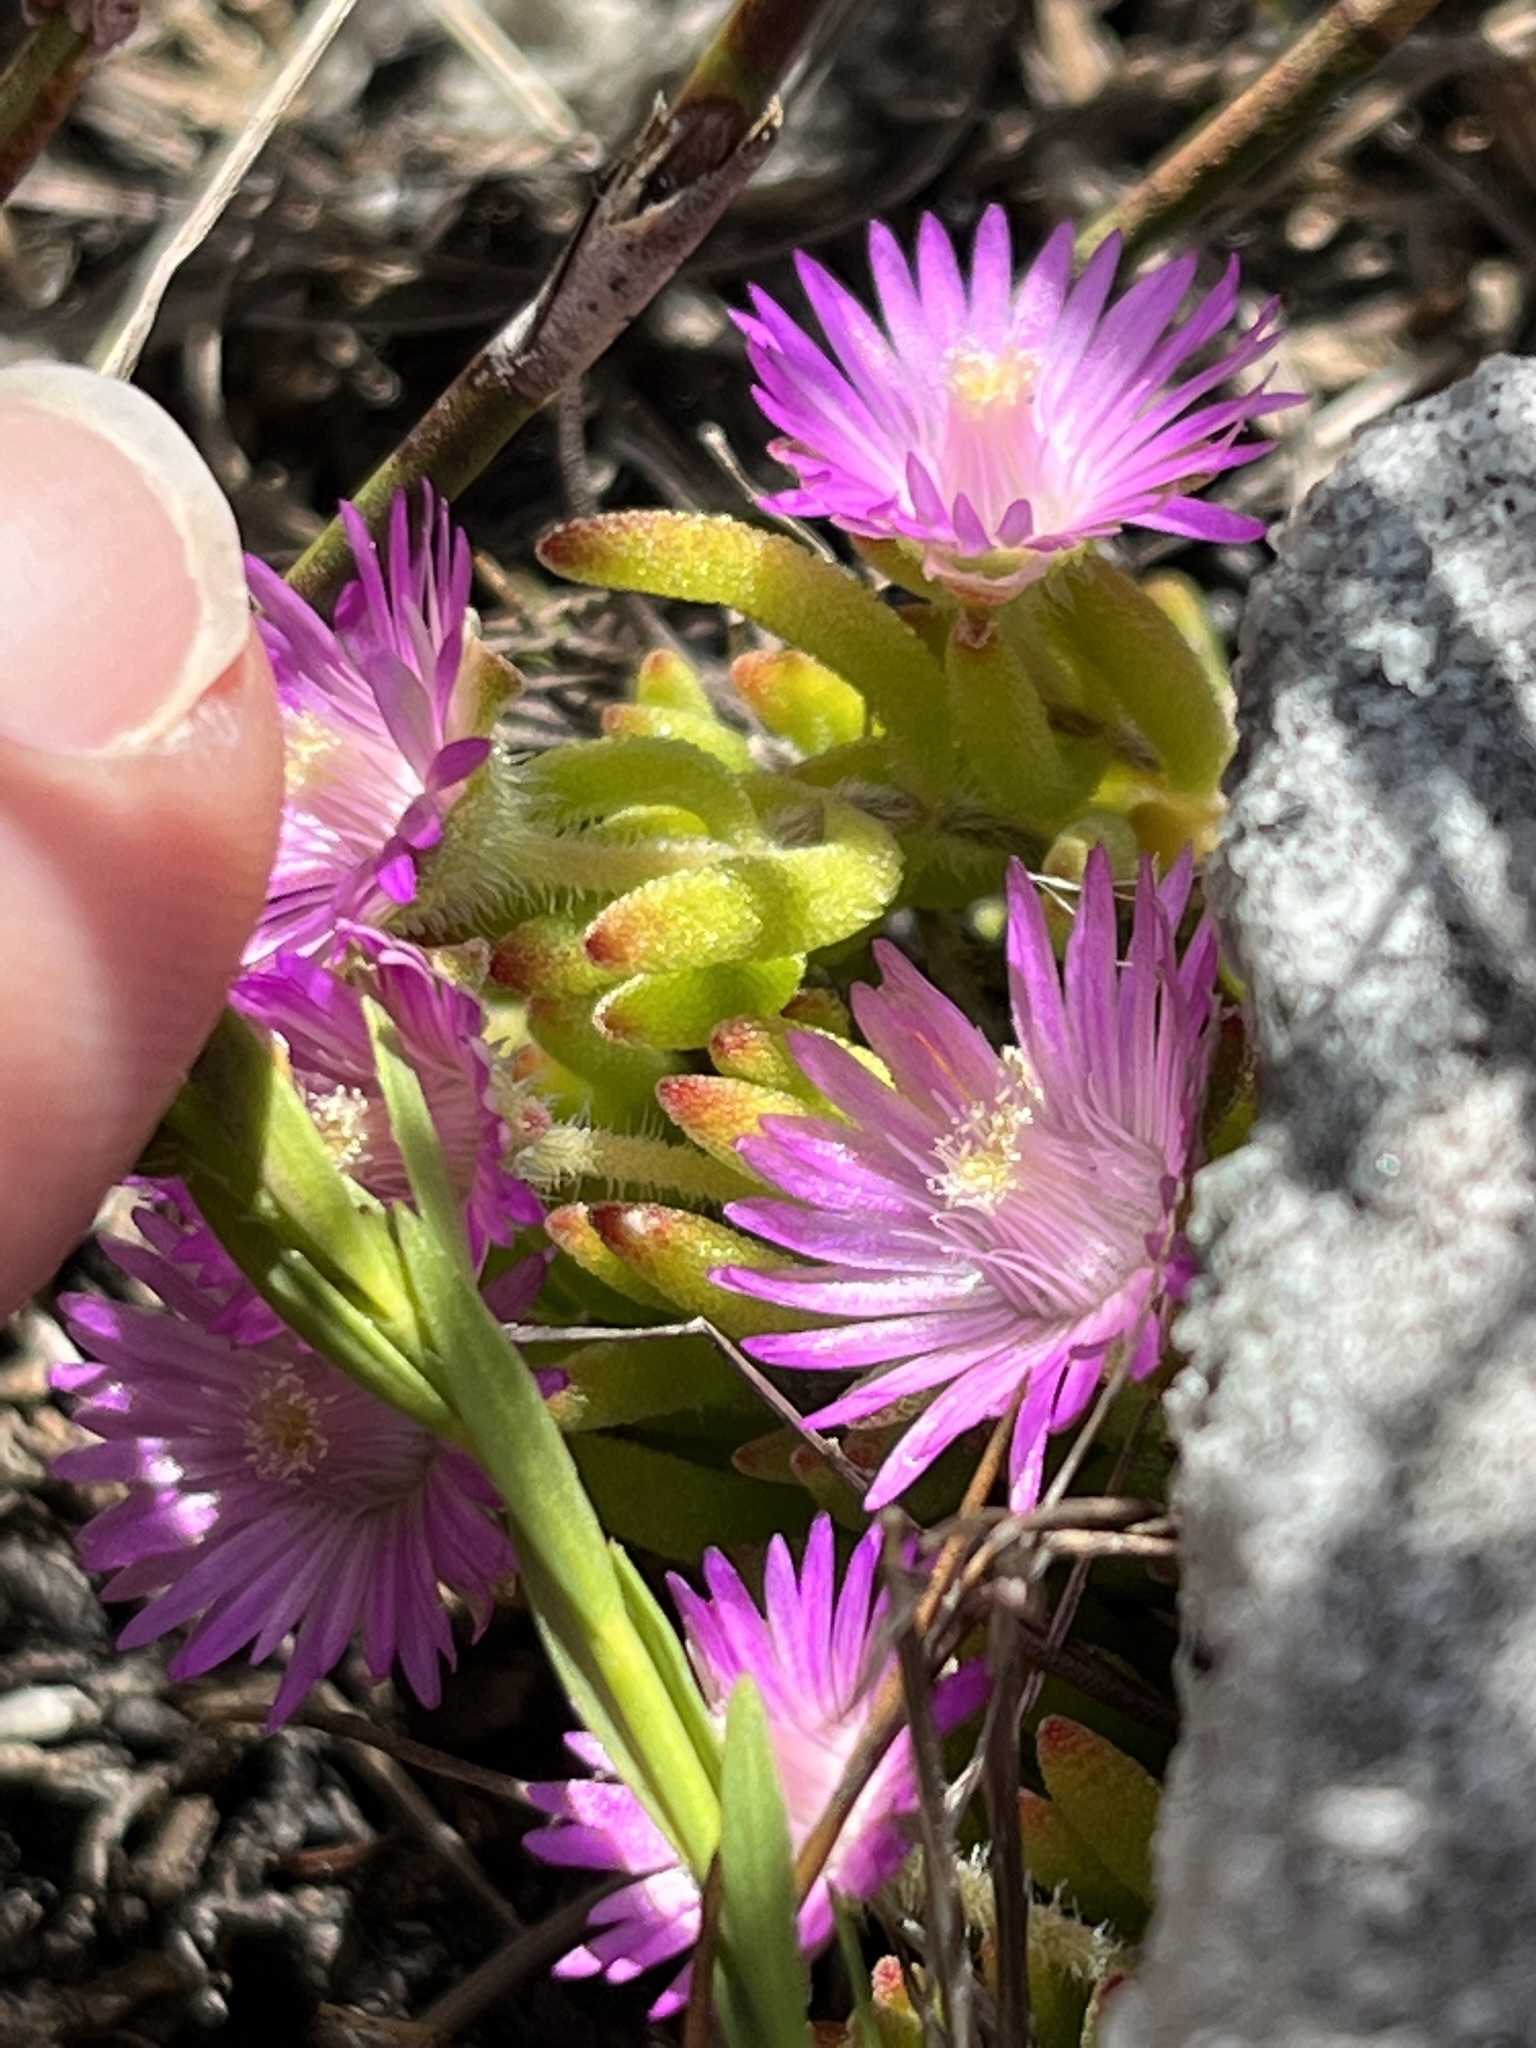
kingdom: Plantae
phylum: Tracheophyta
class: Magnoliopsida
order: Caryophyllales
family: Aizoaceae
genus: Drosanthemum
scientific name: Drosanthemum stokoei
